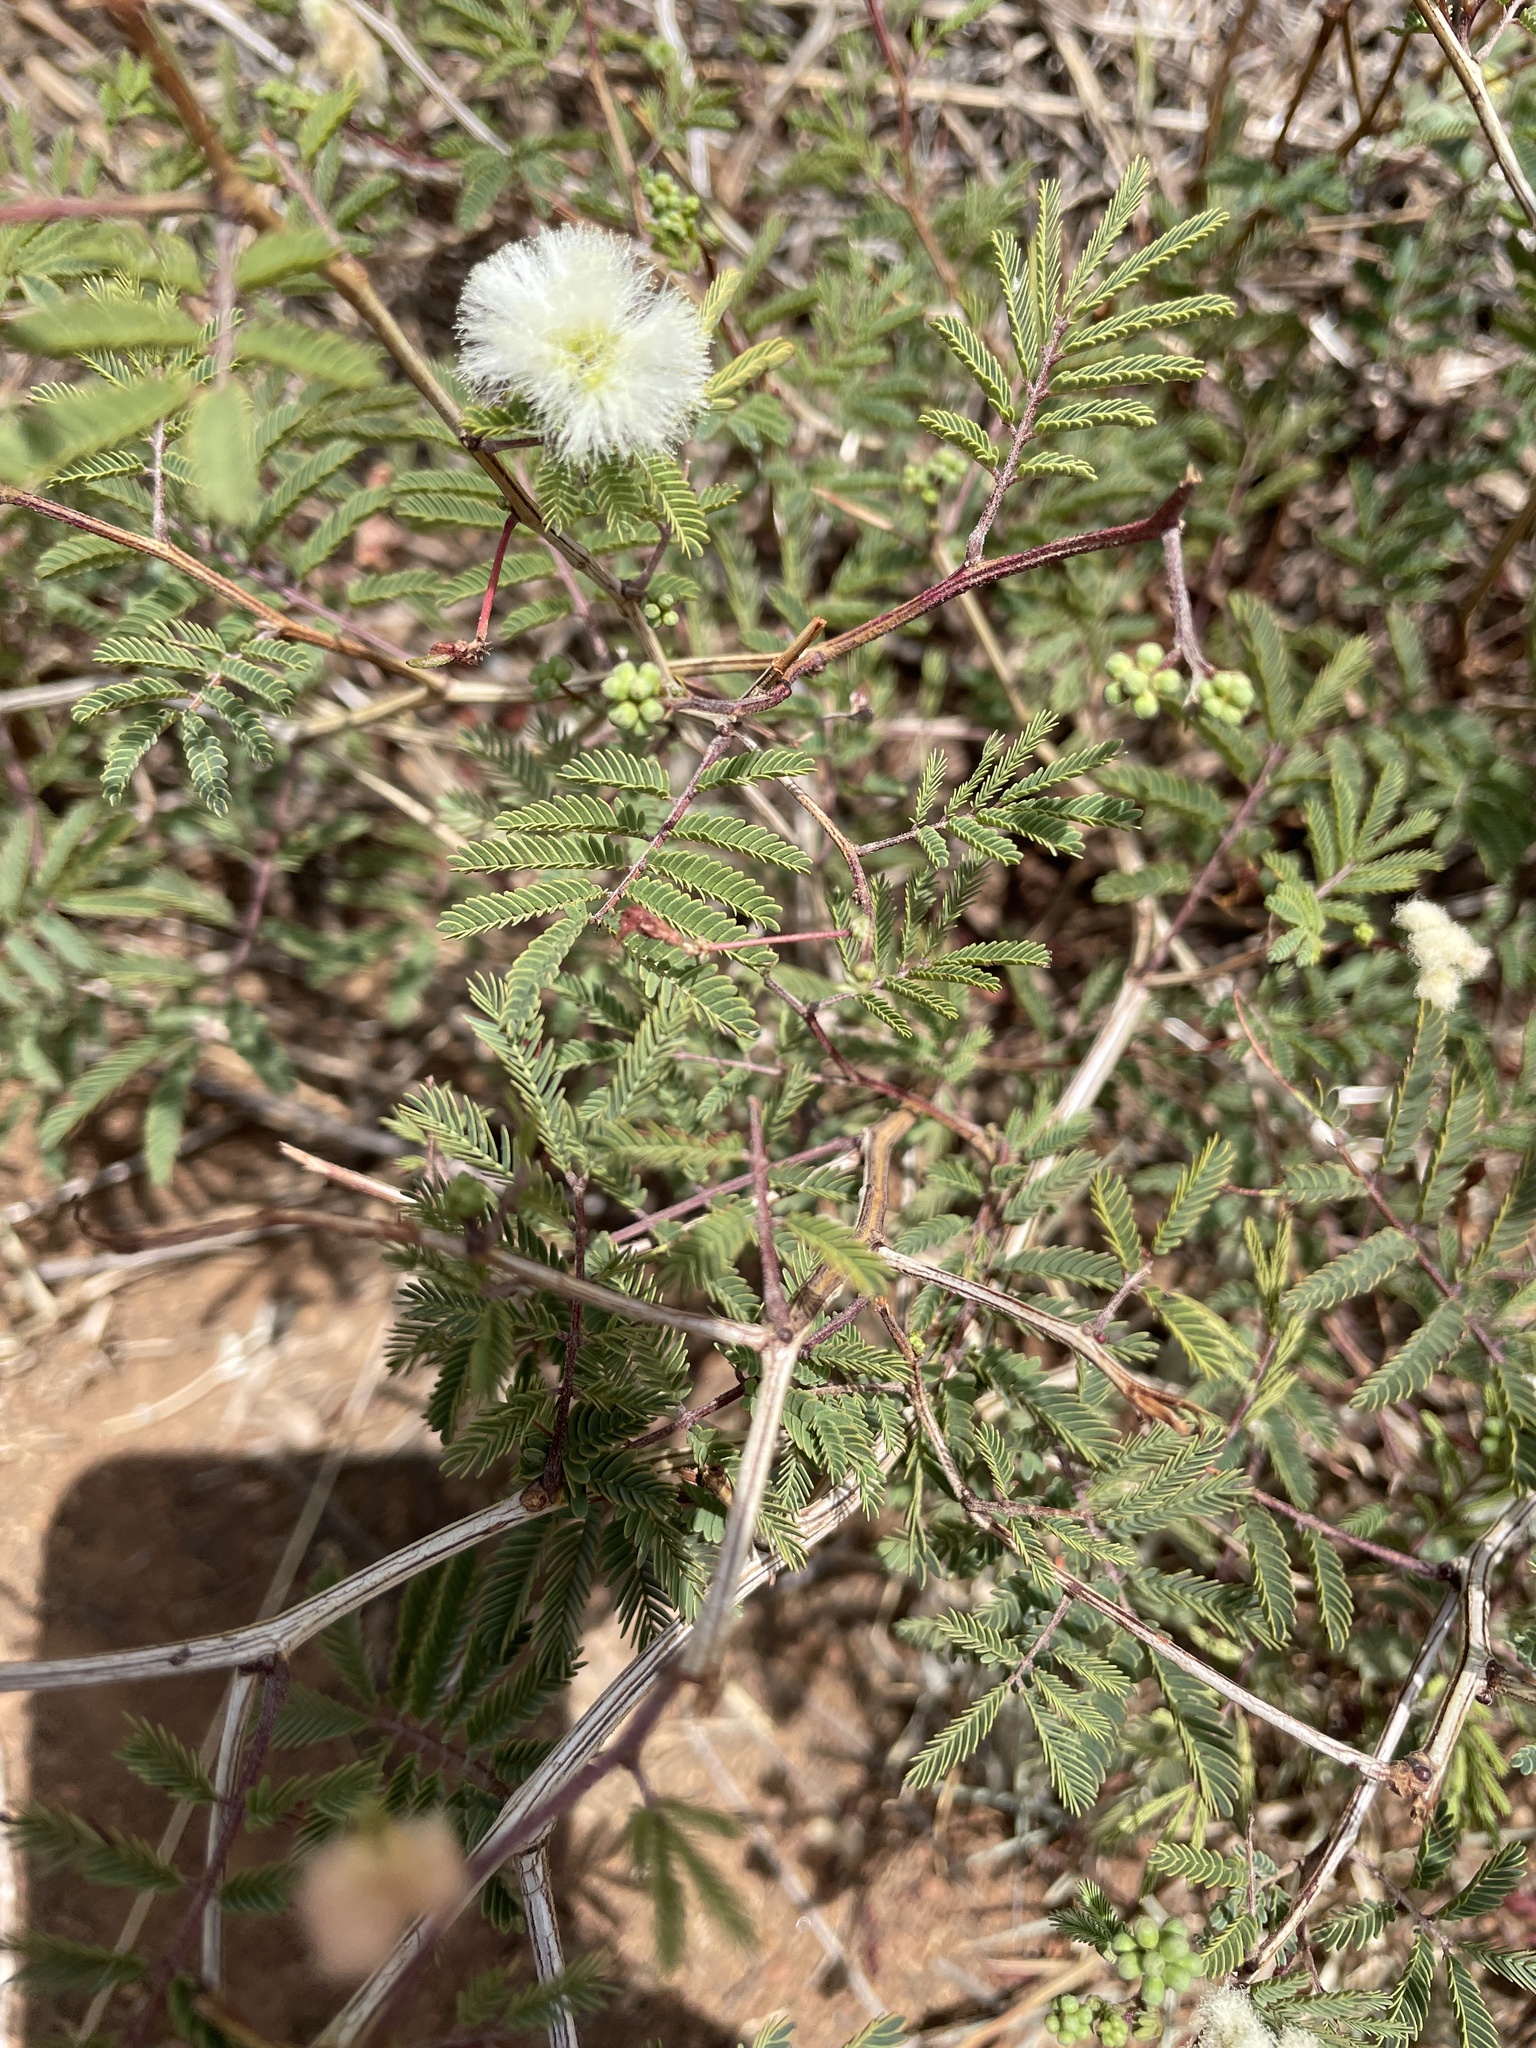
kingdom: Plantae
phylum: Tracheophyta
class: Magnoliopsida
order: Fabales
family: Fabaceae
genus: Acaciella
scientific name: Acaciella angustissima
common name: Prairie acacia
